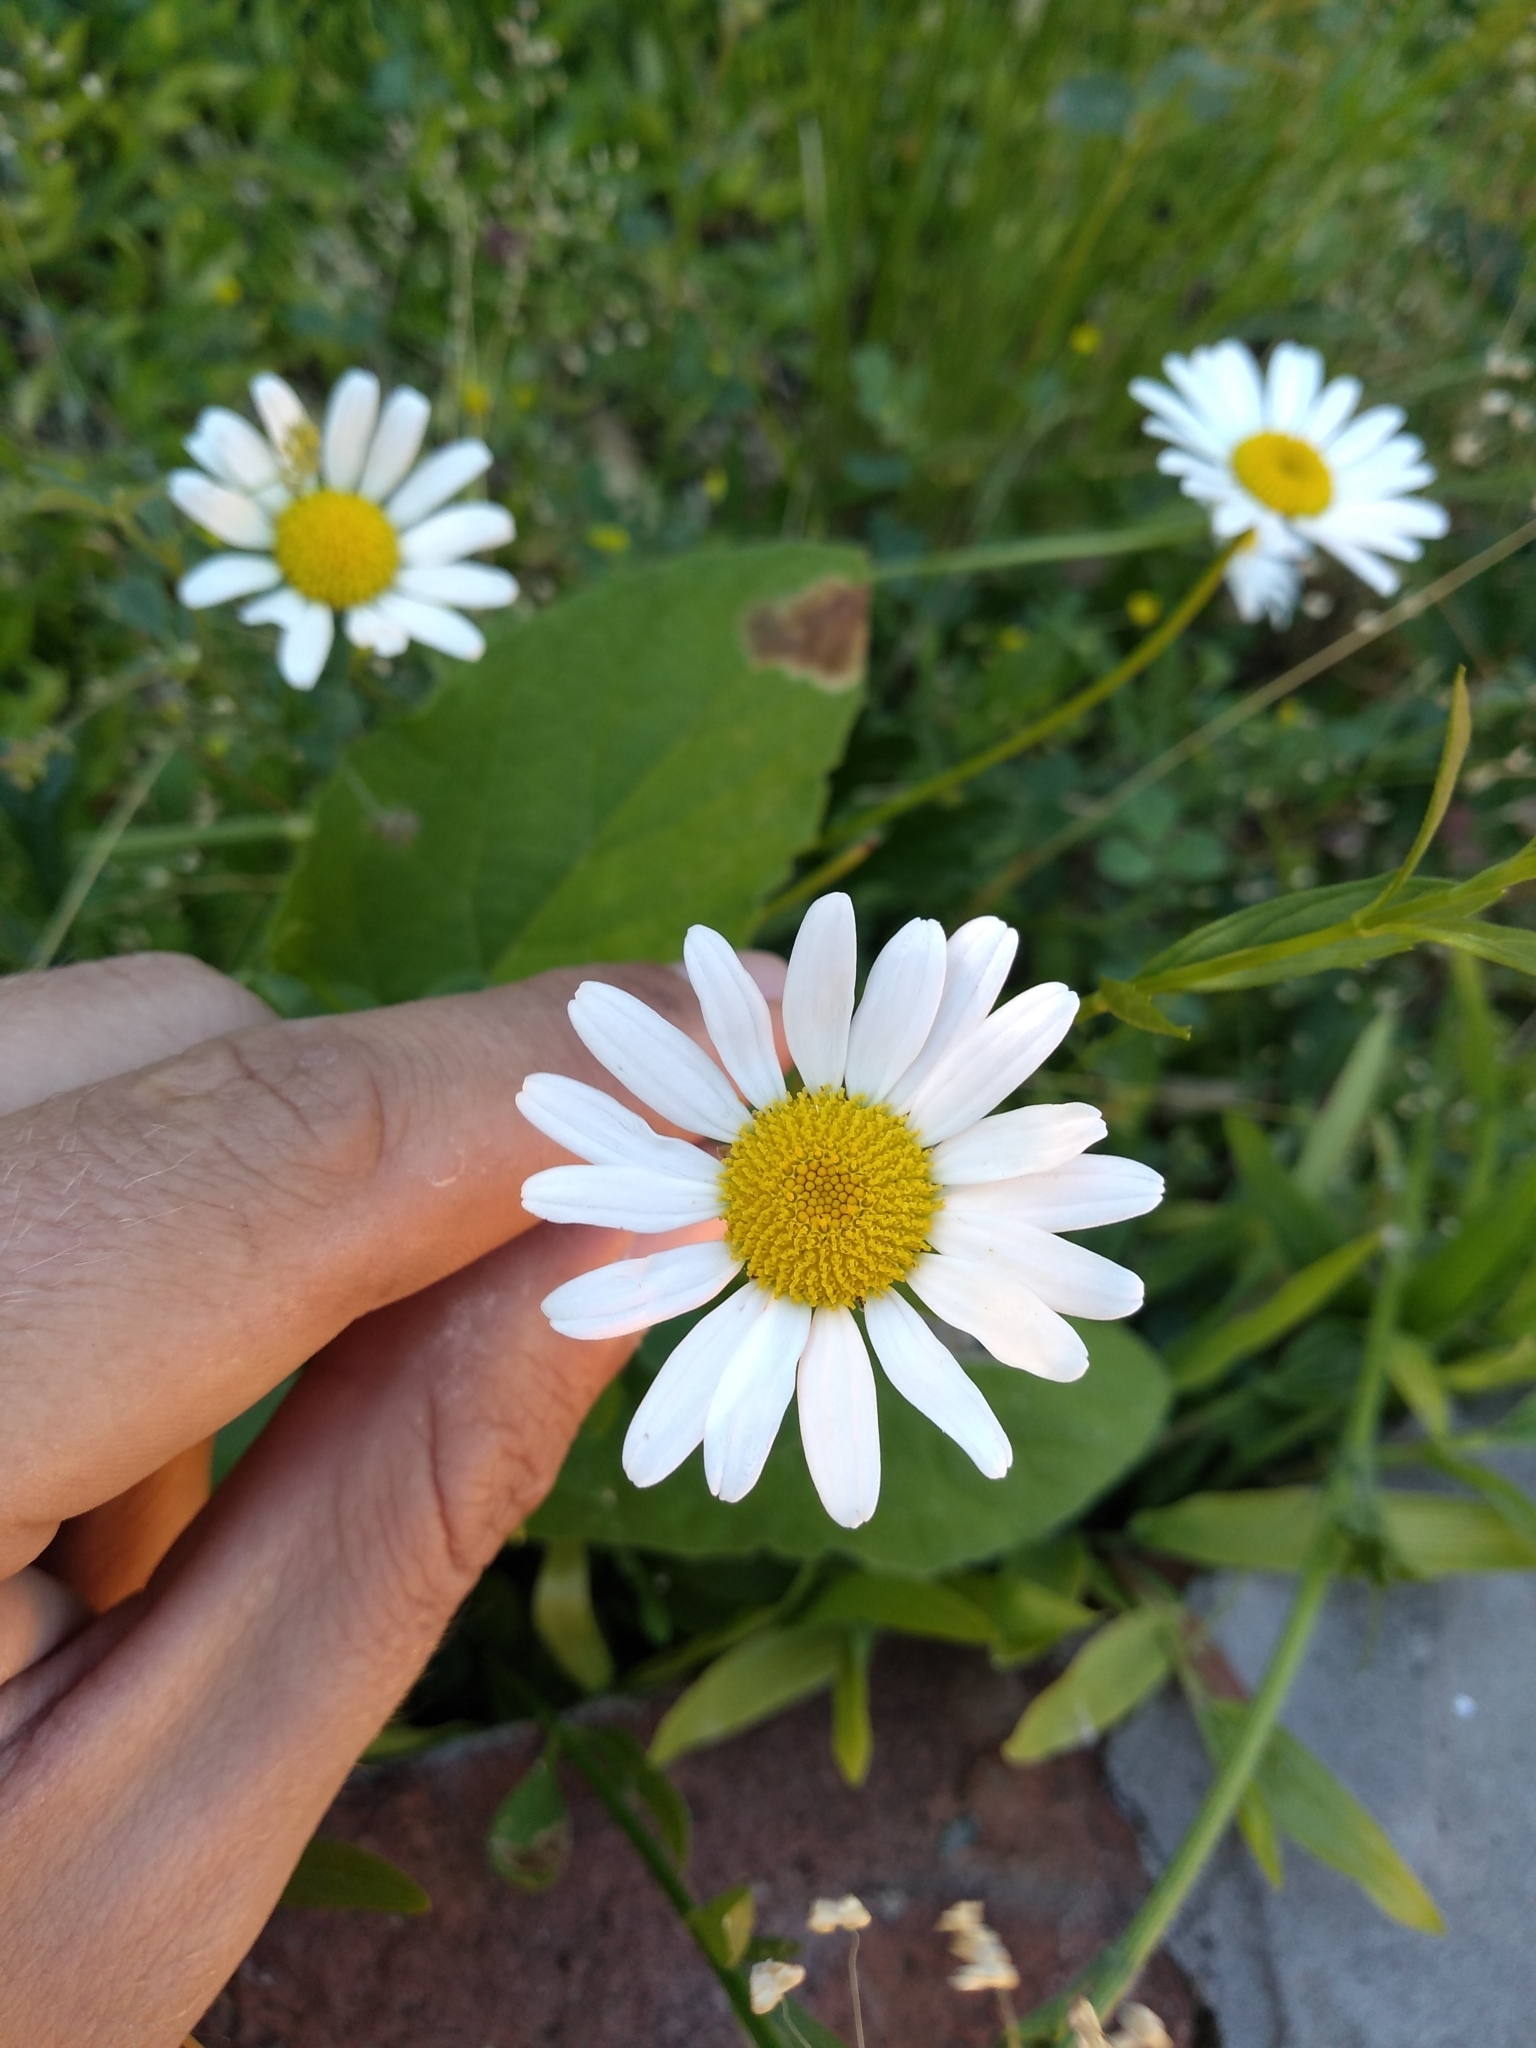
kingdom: Plantae
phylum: Tracheophyta
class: Magnoliopsida
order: Asterales
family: Asteraceae
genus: Leucanthemum
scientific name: Leucanthemum vulgare
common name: Oxeye daisy
